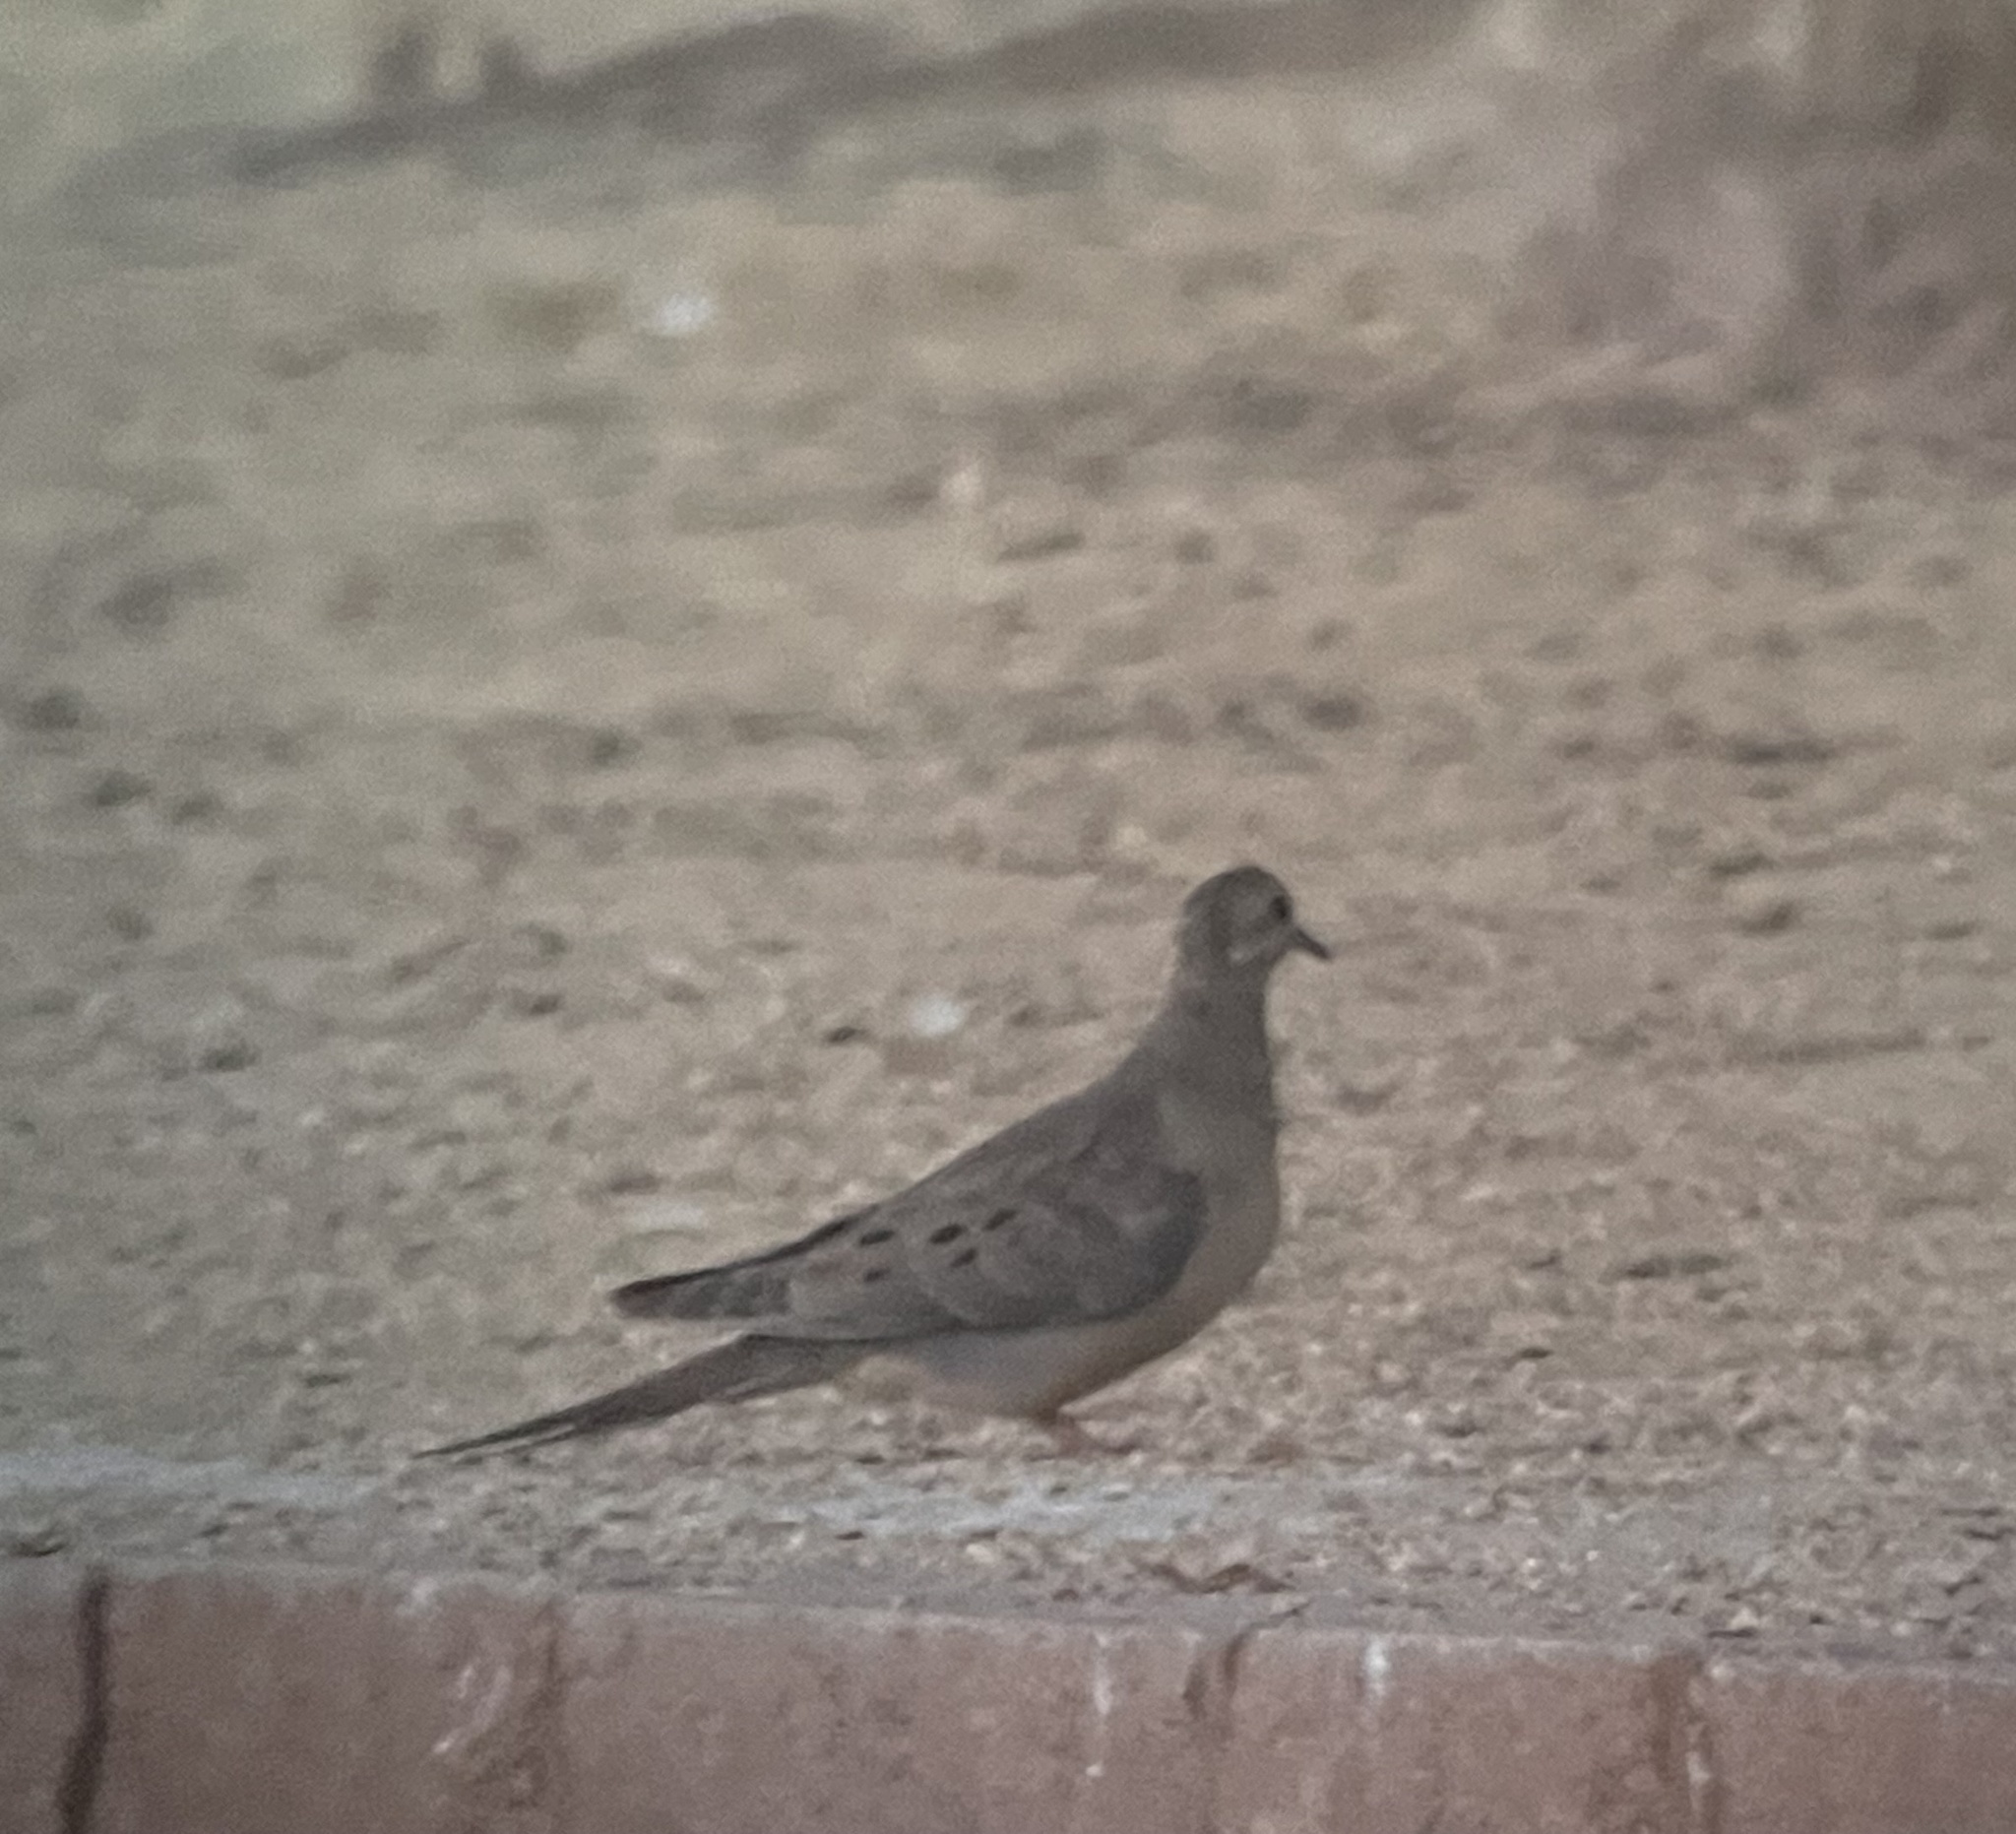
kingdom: Animalia
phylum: Chordata
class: Aves
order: Columbiformes
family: Columbidae
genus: Zenaida
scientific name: Zenaida macroura
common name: Mourning dove
